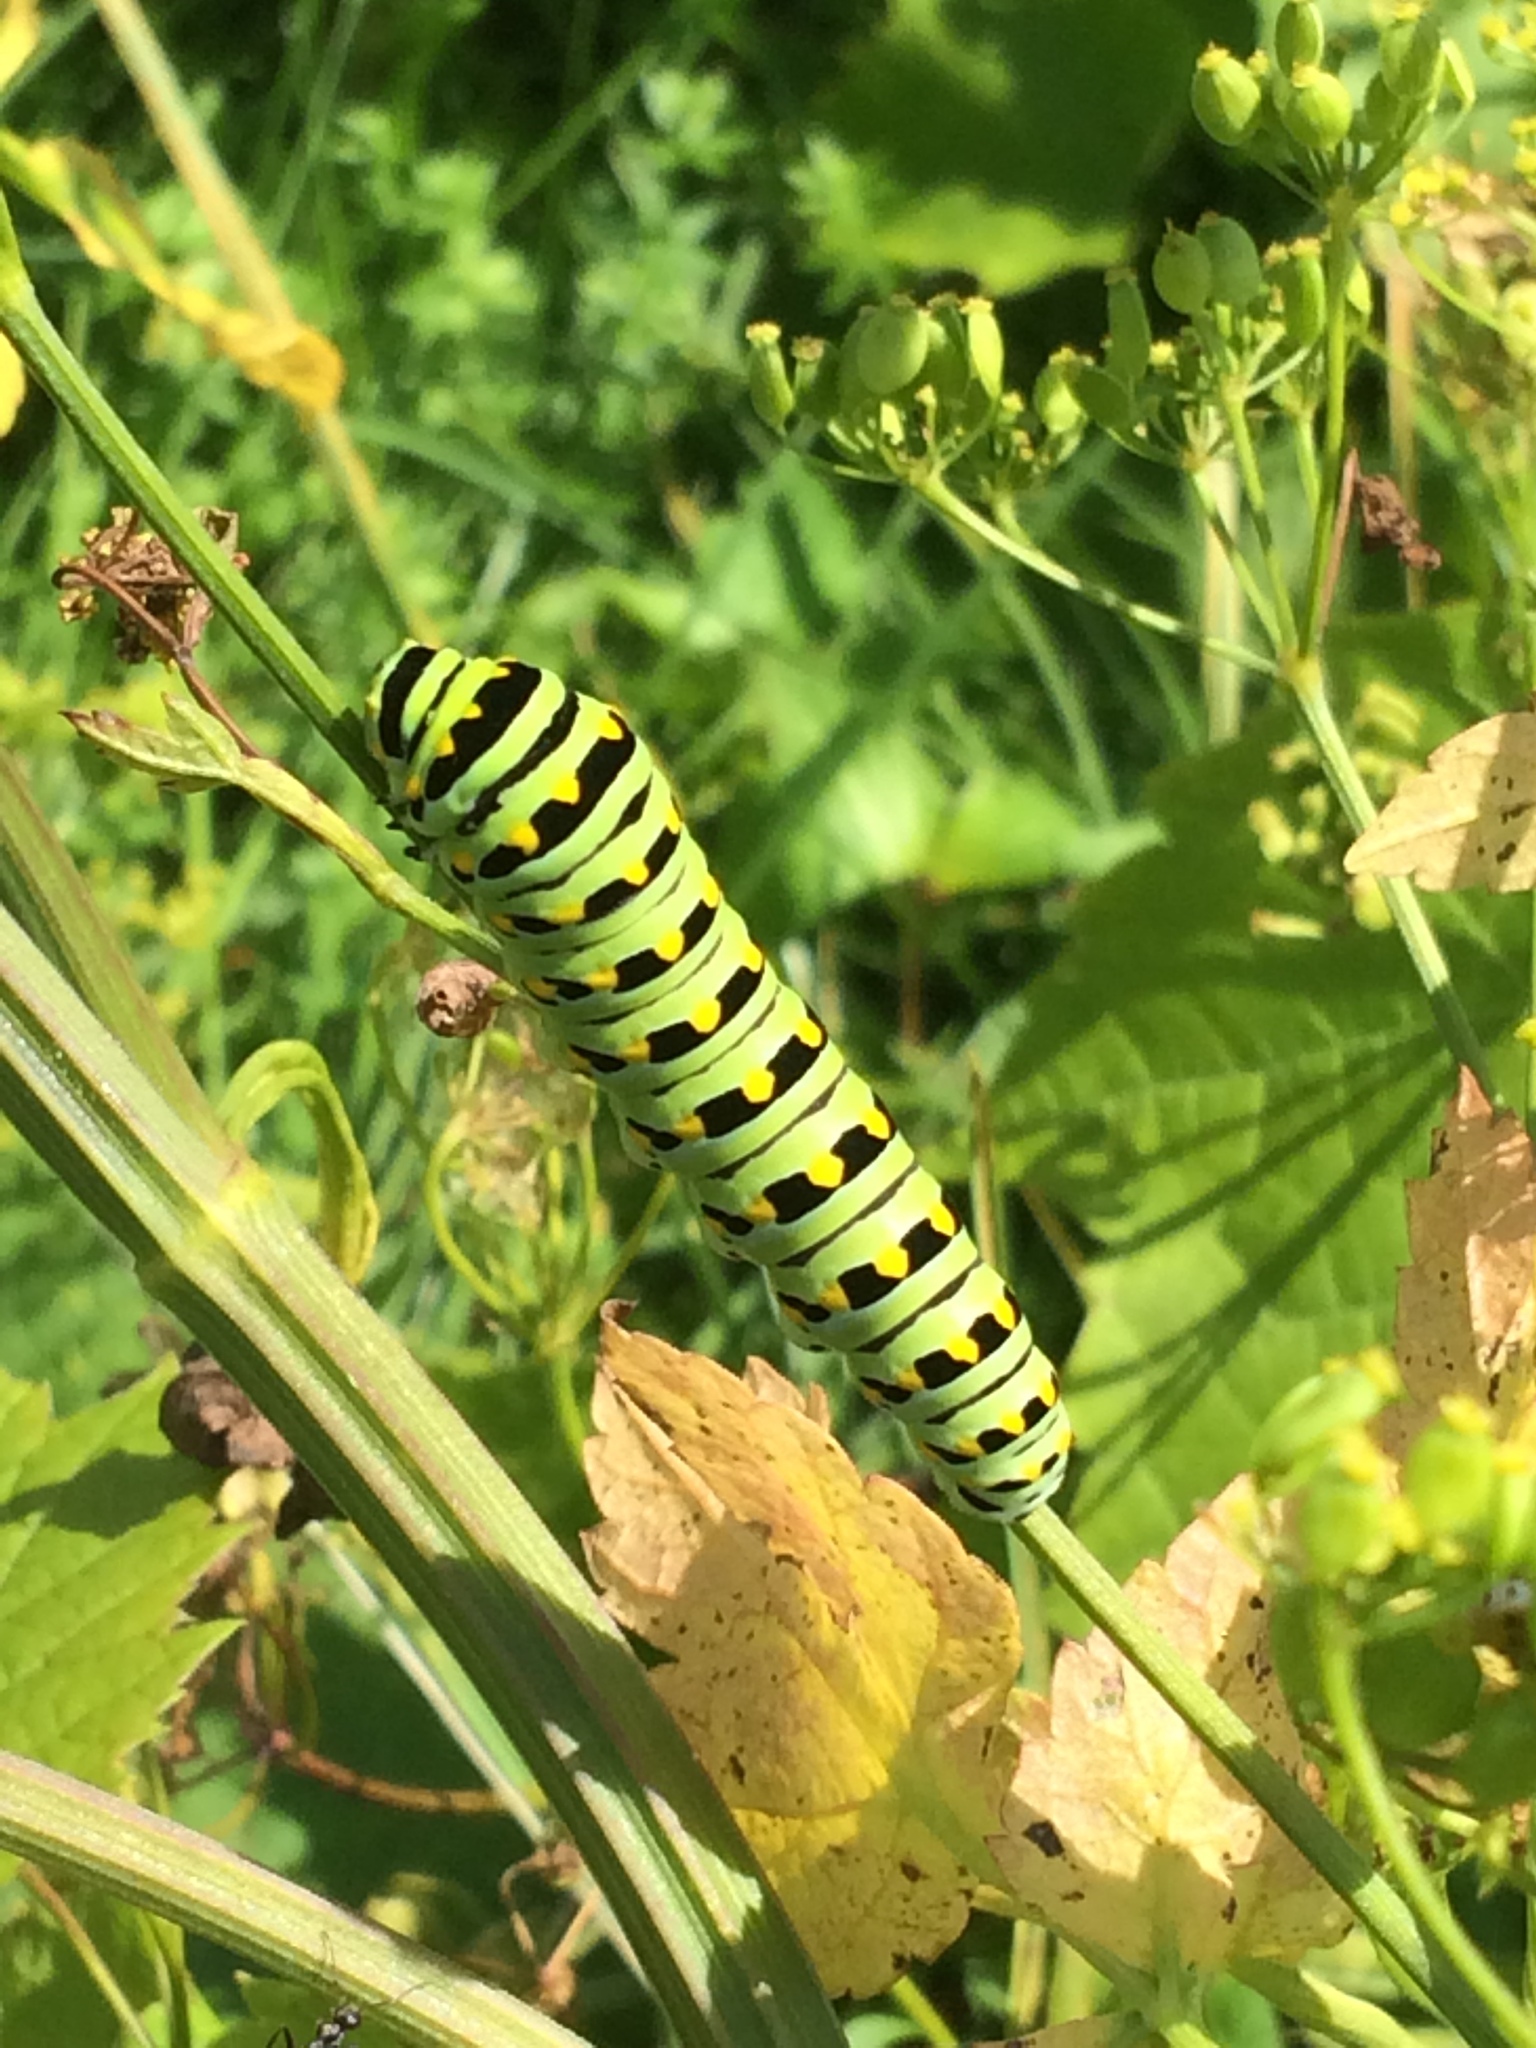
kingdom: Animalia
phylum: Arthropoda
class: Insecta
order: Lepidoptera
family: Papilionidae
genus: Papilio
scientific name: Papilio polyxenes
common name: Black swallowtail
